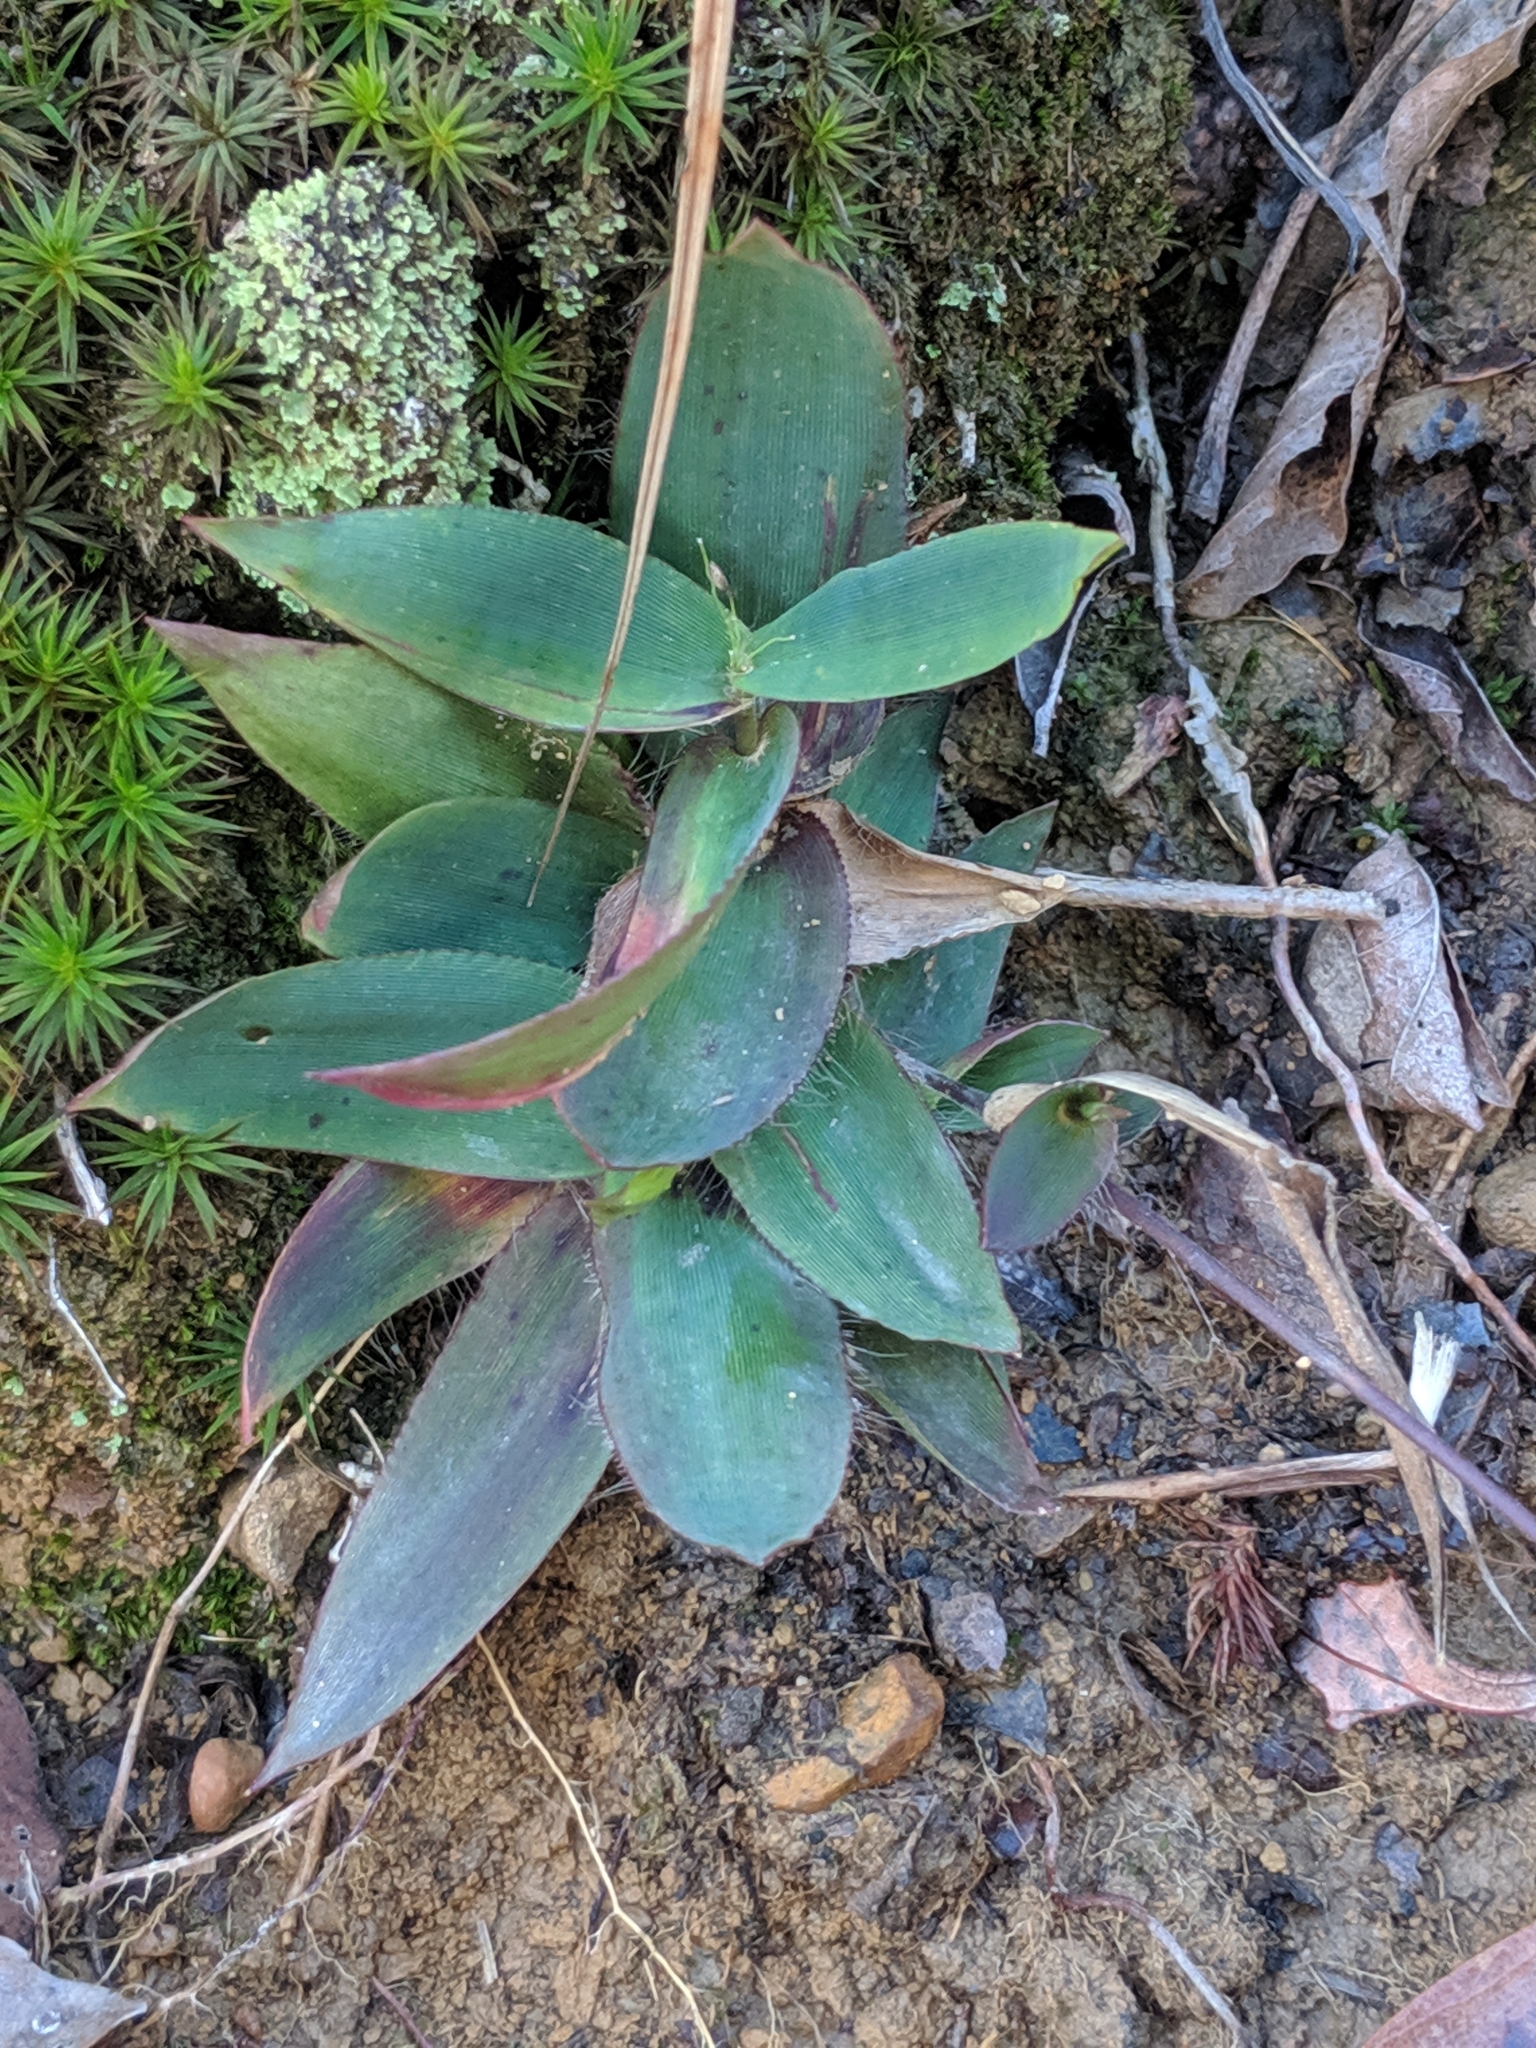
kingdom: Plantae
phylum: Tracheophyta
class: Liliopsida
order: Poales
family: Poaceae
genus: Dichanthelium
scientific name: Dichanthelium
